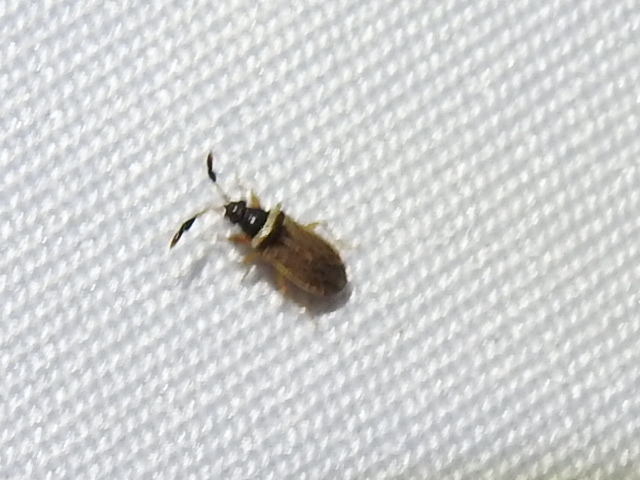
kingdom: Animalia
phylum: Arthropoda
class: Insecta
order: Hemiptera
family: Rhyparochromidae
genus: Ptochiomera
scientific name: Ptochiomera nodosa
